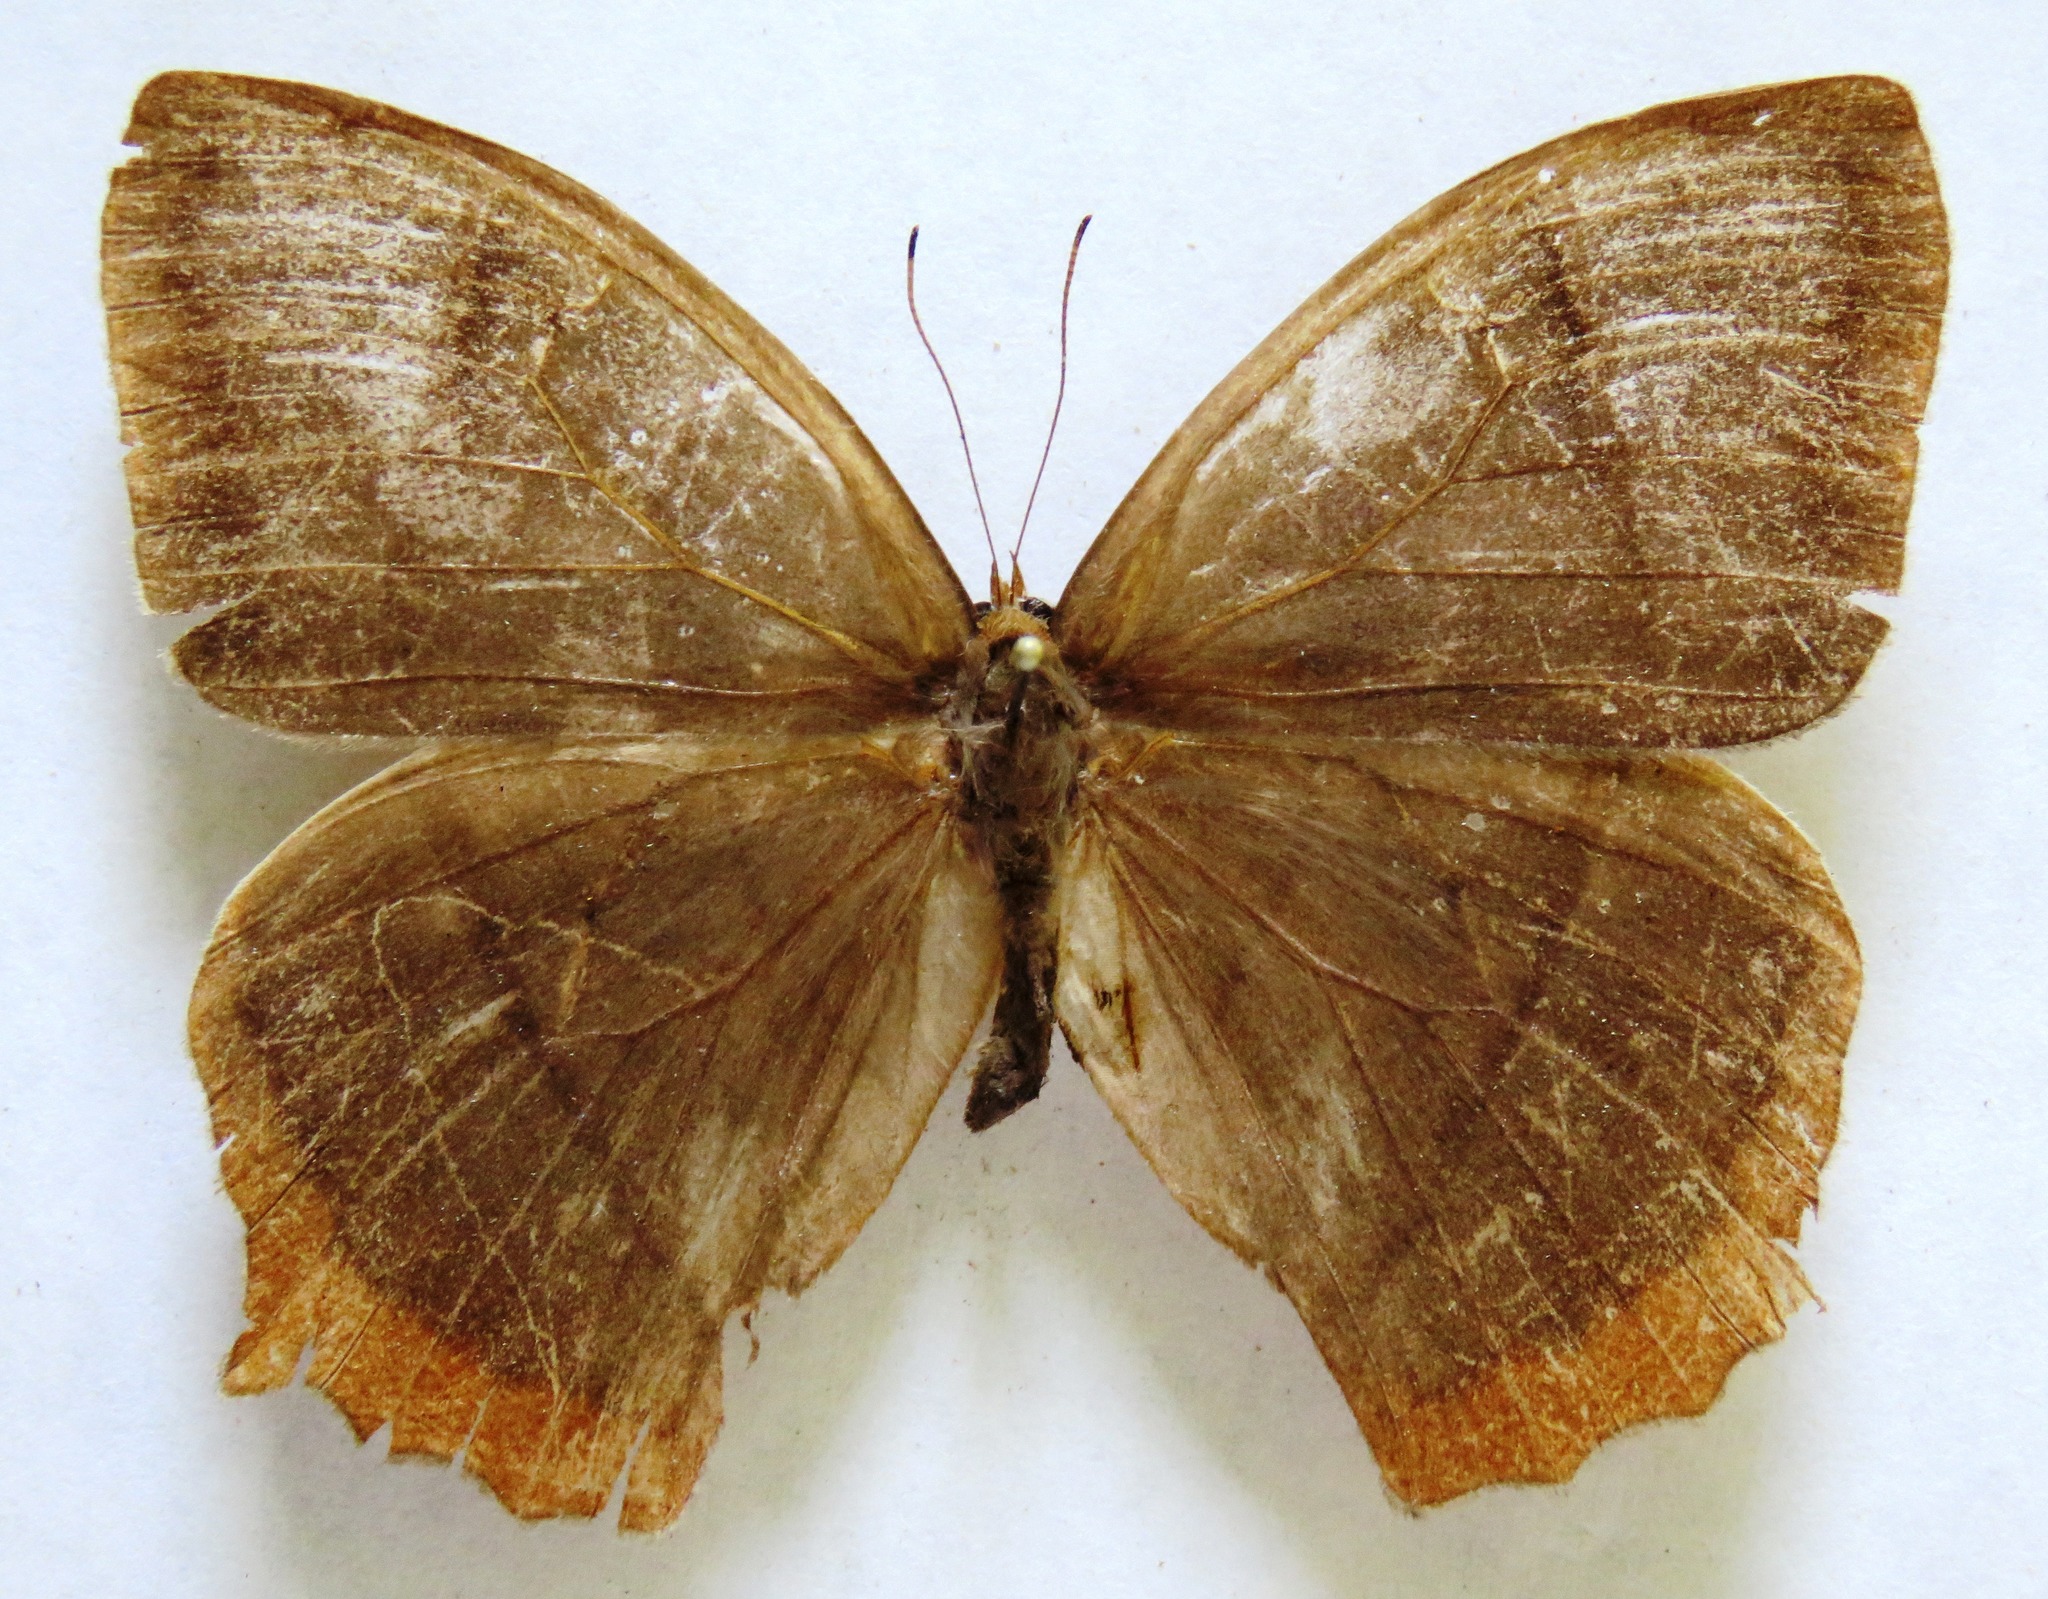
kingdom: Animalia
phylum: Arthropoda
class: Insecta
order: Lepidoptera
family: Nymphalidae
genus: Taygetis
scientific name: Taygetis virgilia
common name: Stub-tailed satyr
